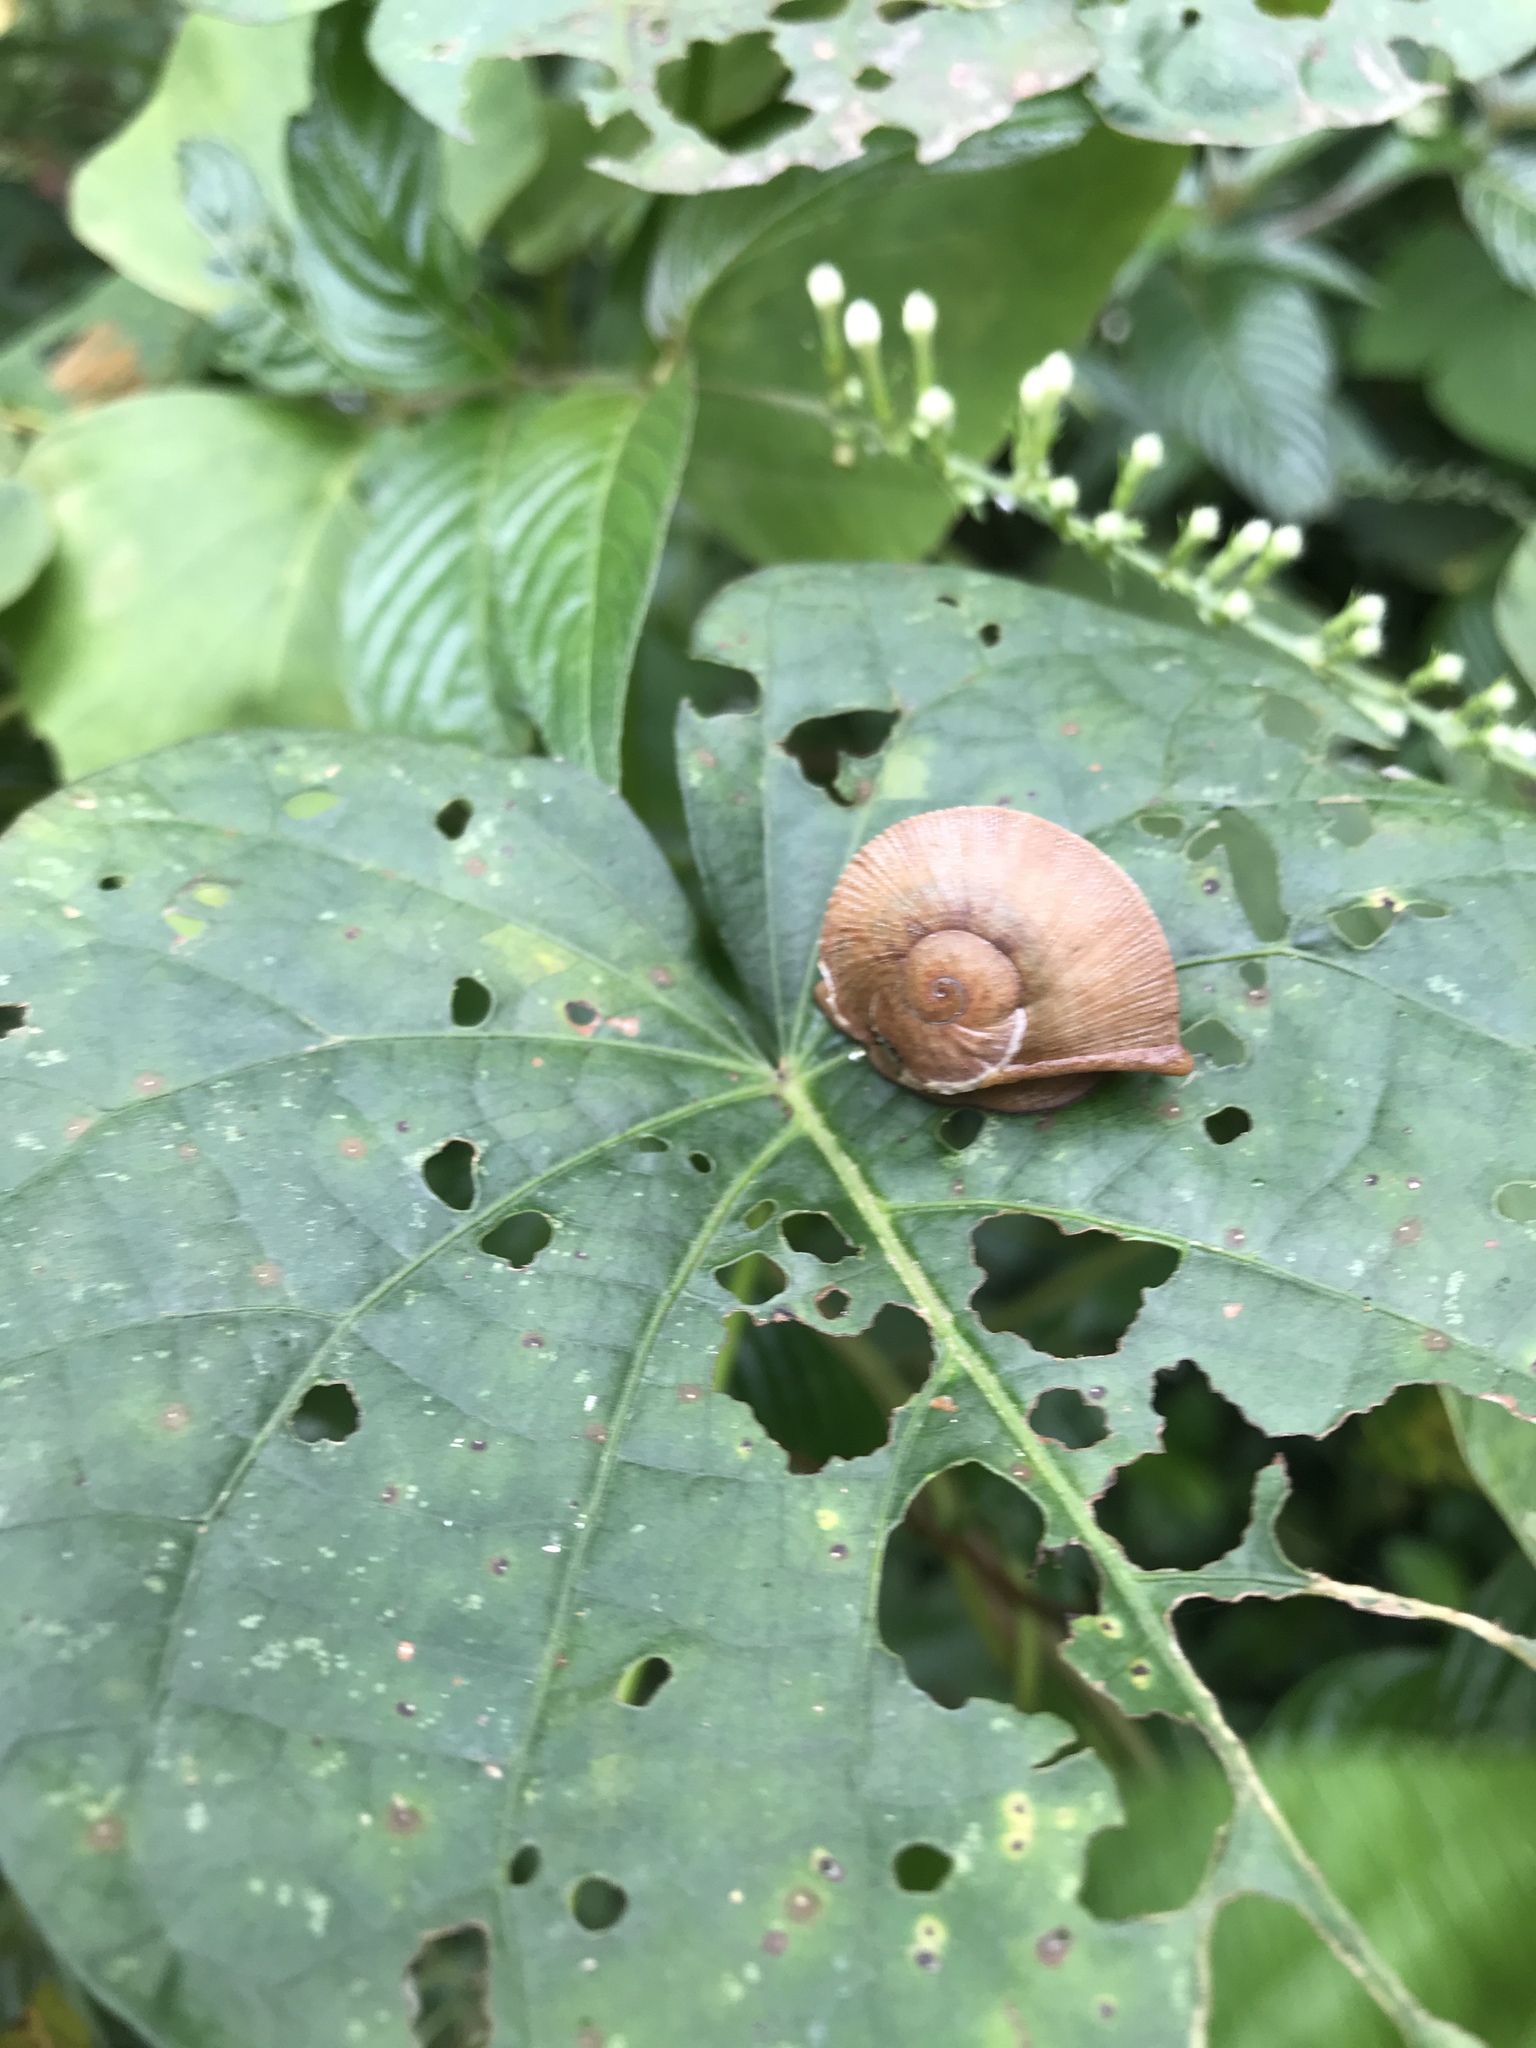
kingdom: Animalia
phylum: Mollusca
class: Gastropoda
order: Stylommatophora
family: Sagdidae
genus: Parthena
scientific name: Parthena acutangula
